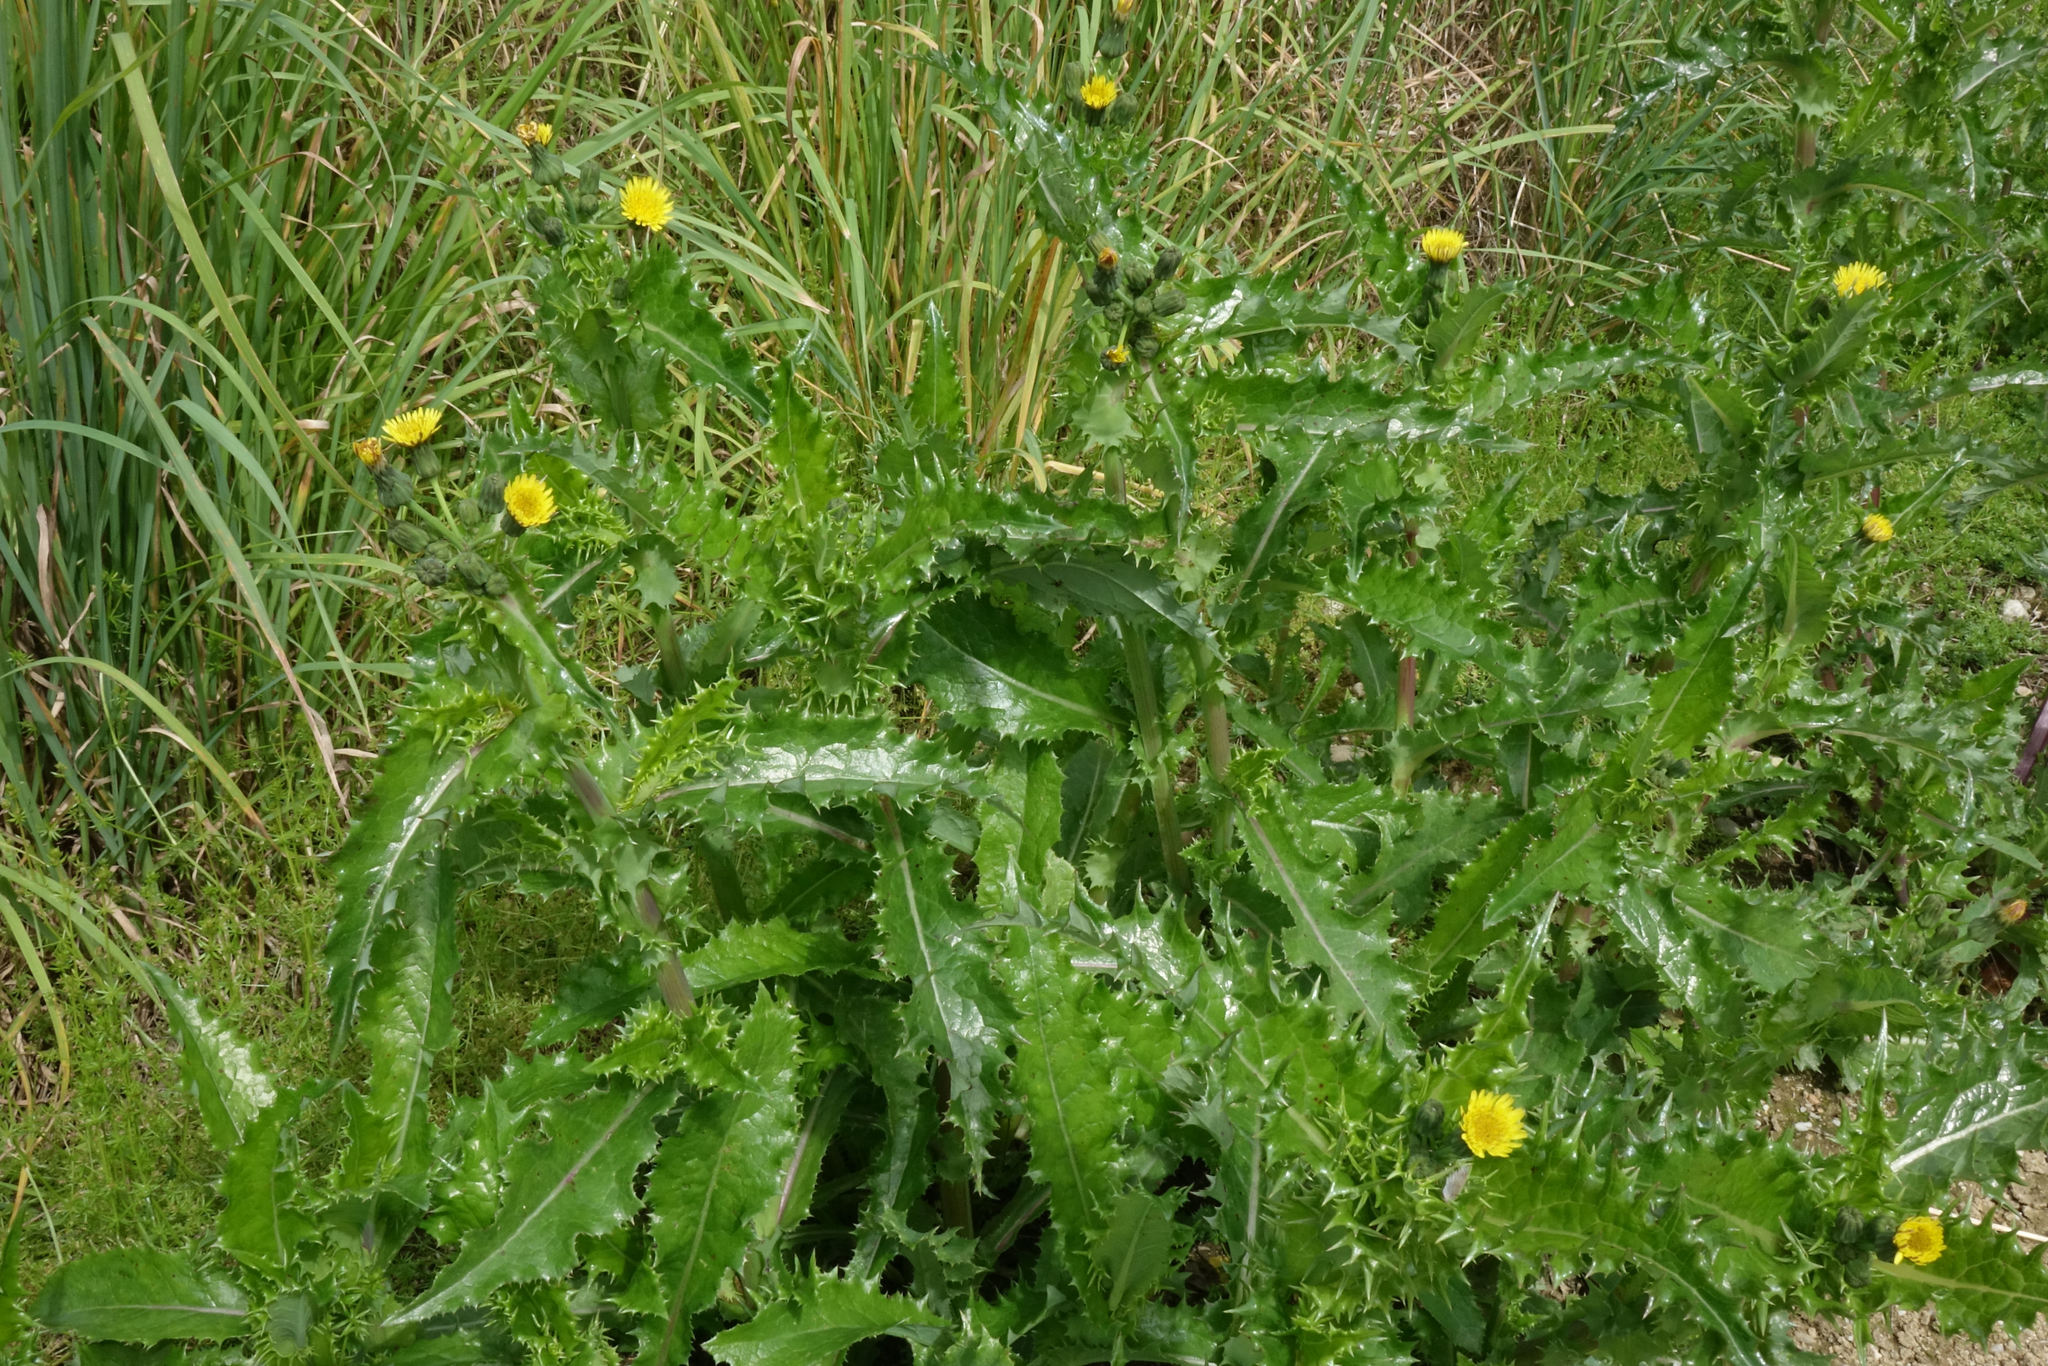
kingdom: Plantae
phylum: Tracheophyta
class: Magnoliopsida
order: Asterales
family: Asteraceae
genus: Sonchus
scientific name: Sonchus asper
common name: Prickly sow-thistle
